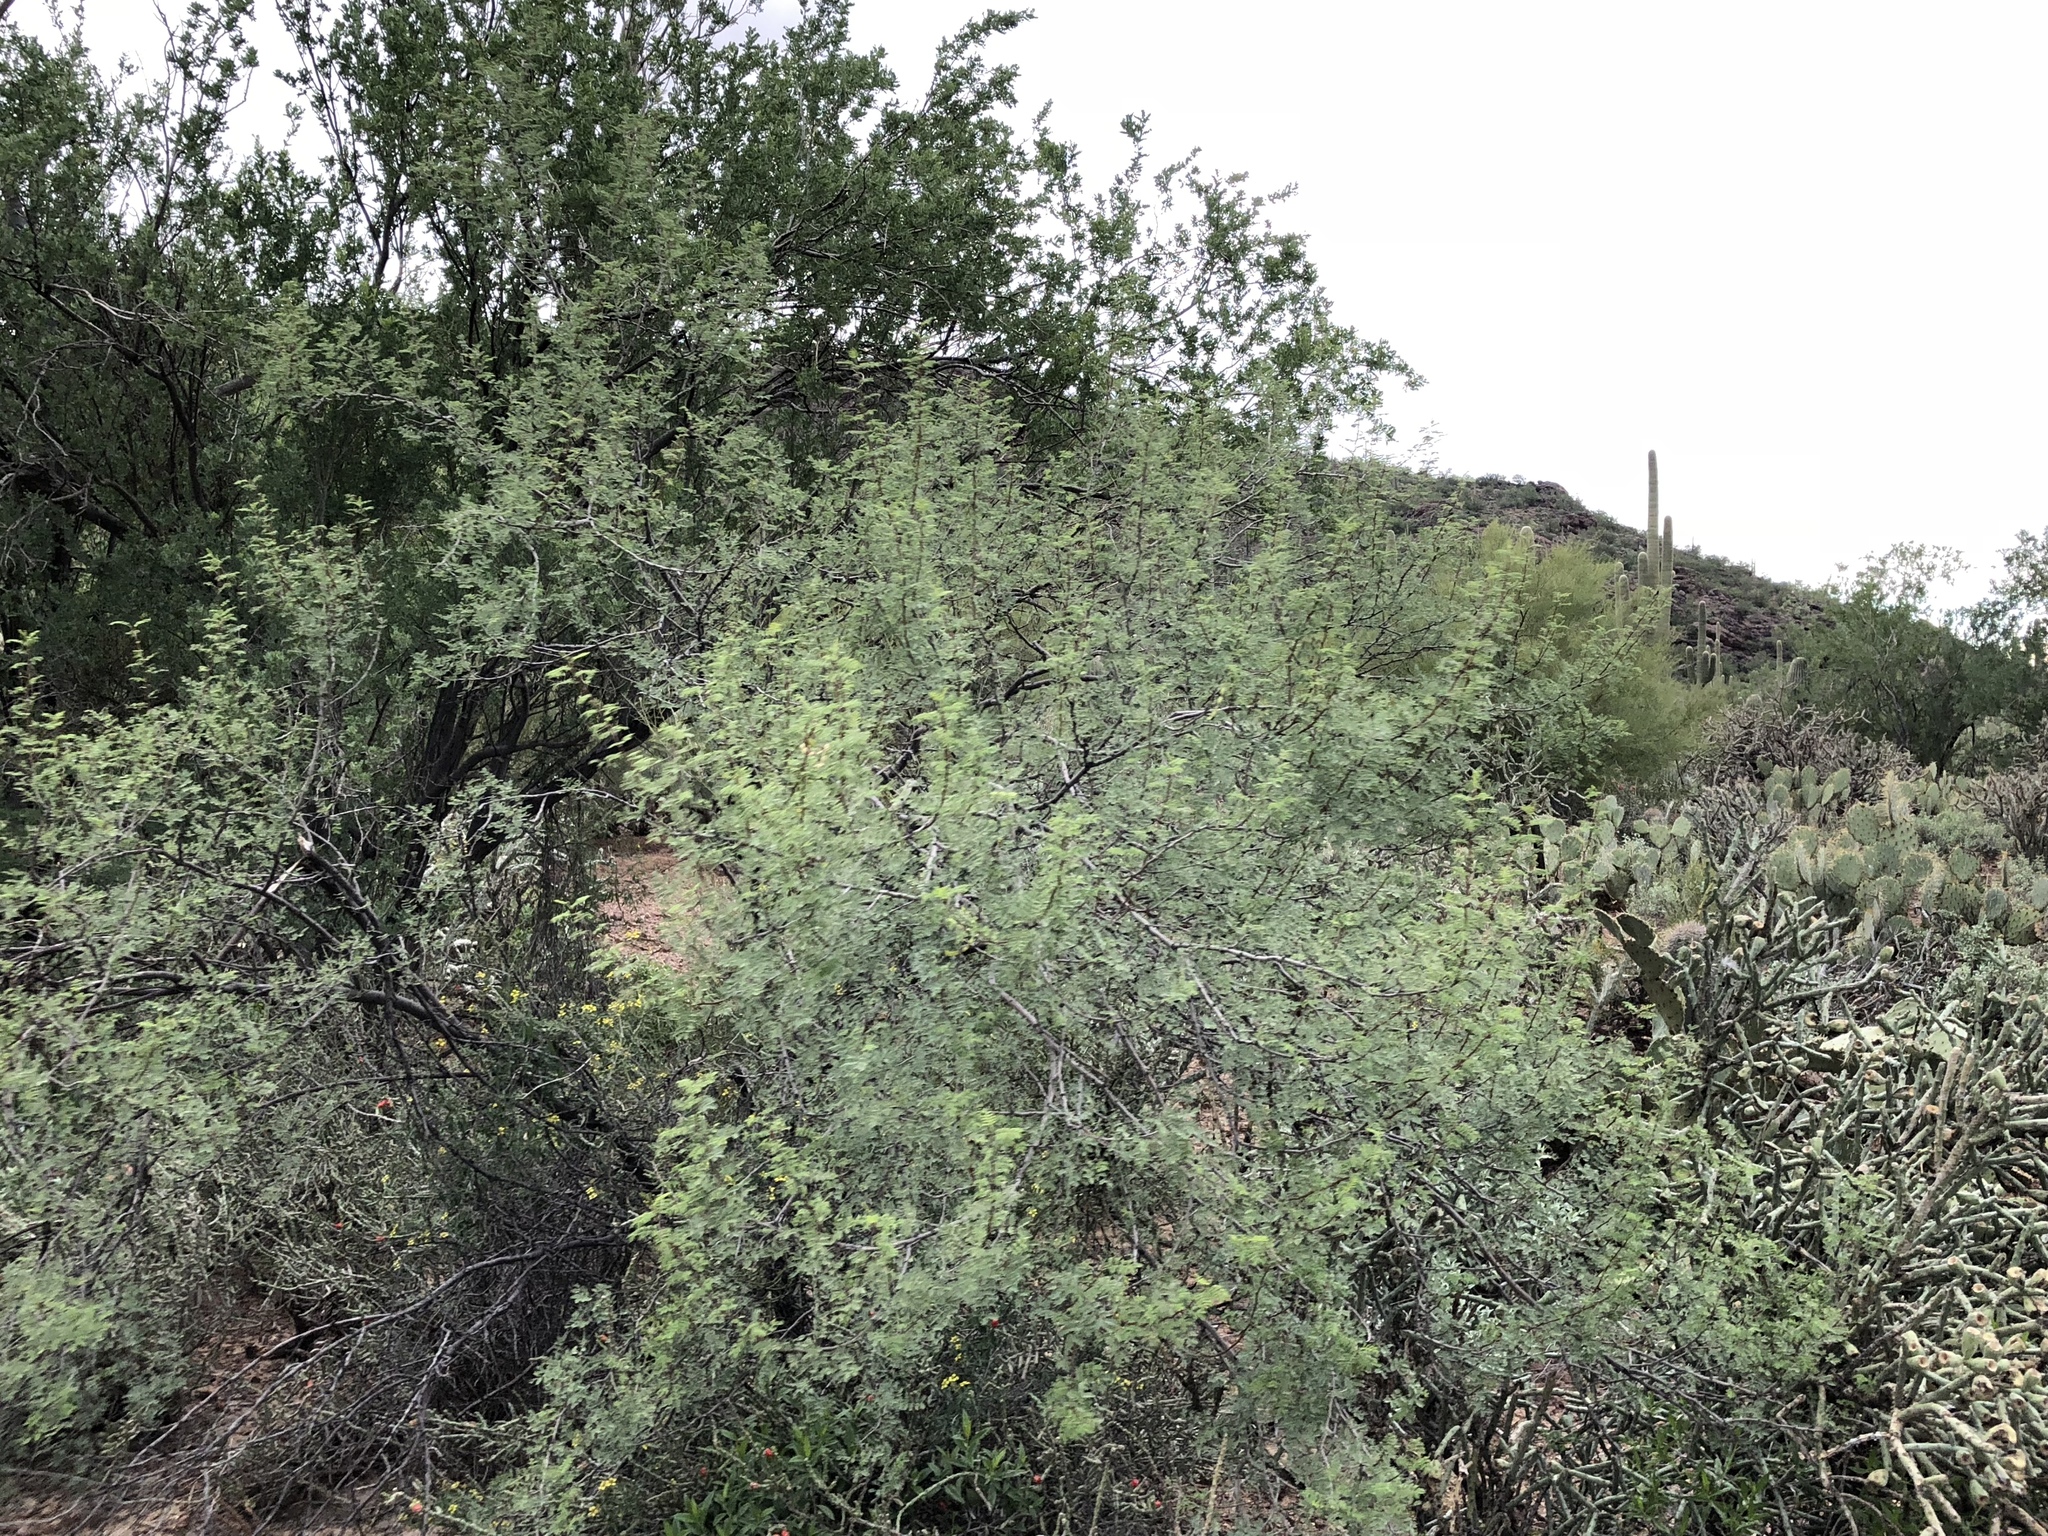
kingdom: Plantae
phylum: Tracheophyta
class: Magnoliopsida
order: Fabales
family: Fabaceae
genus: Vachellia
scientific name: Vachellia constricta
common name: Mescat acacia
